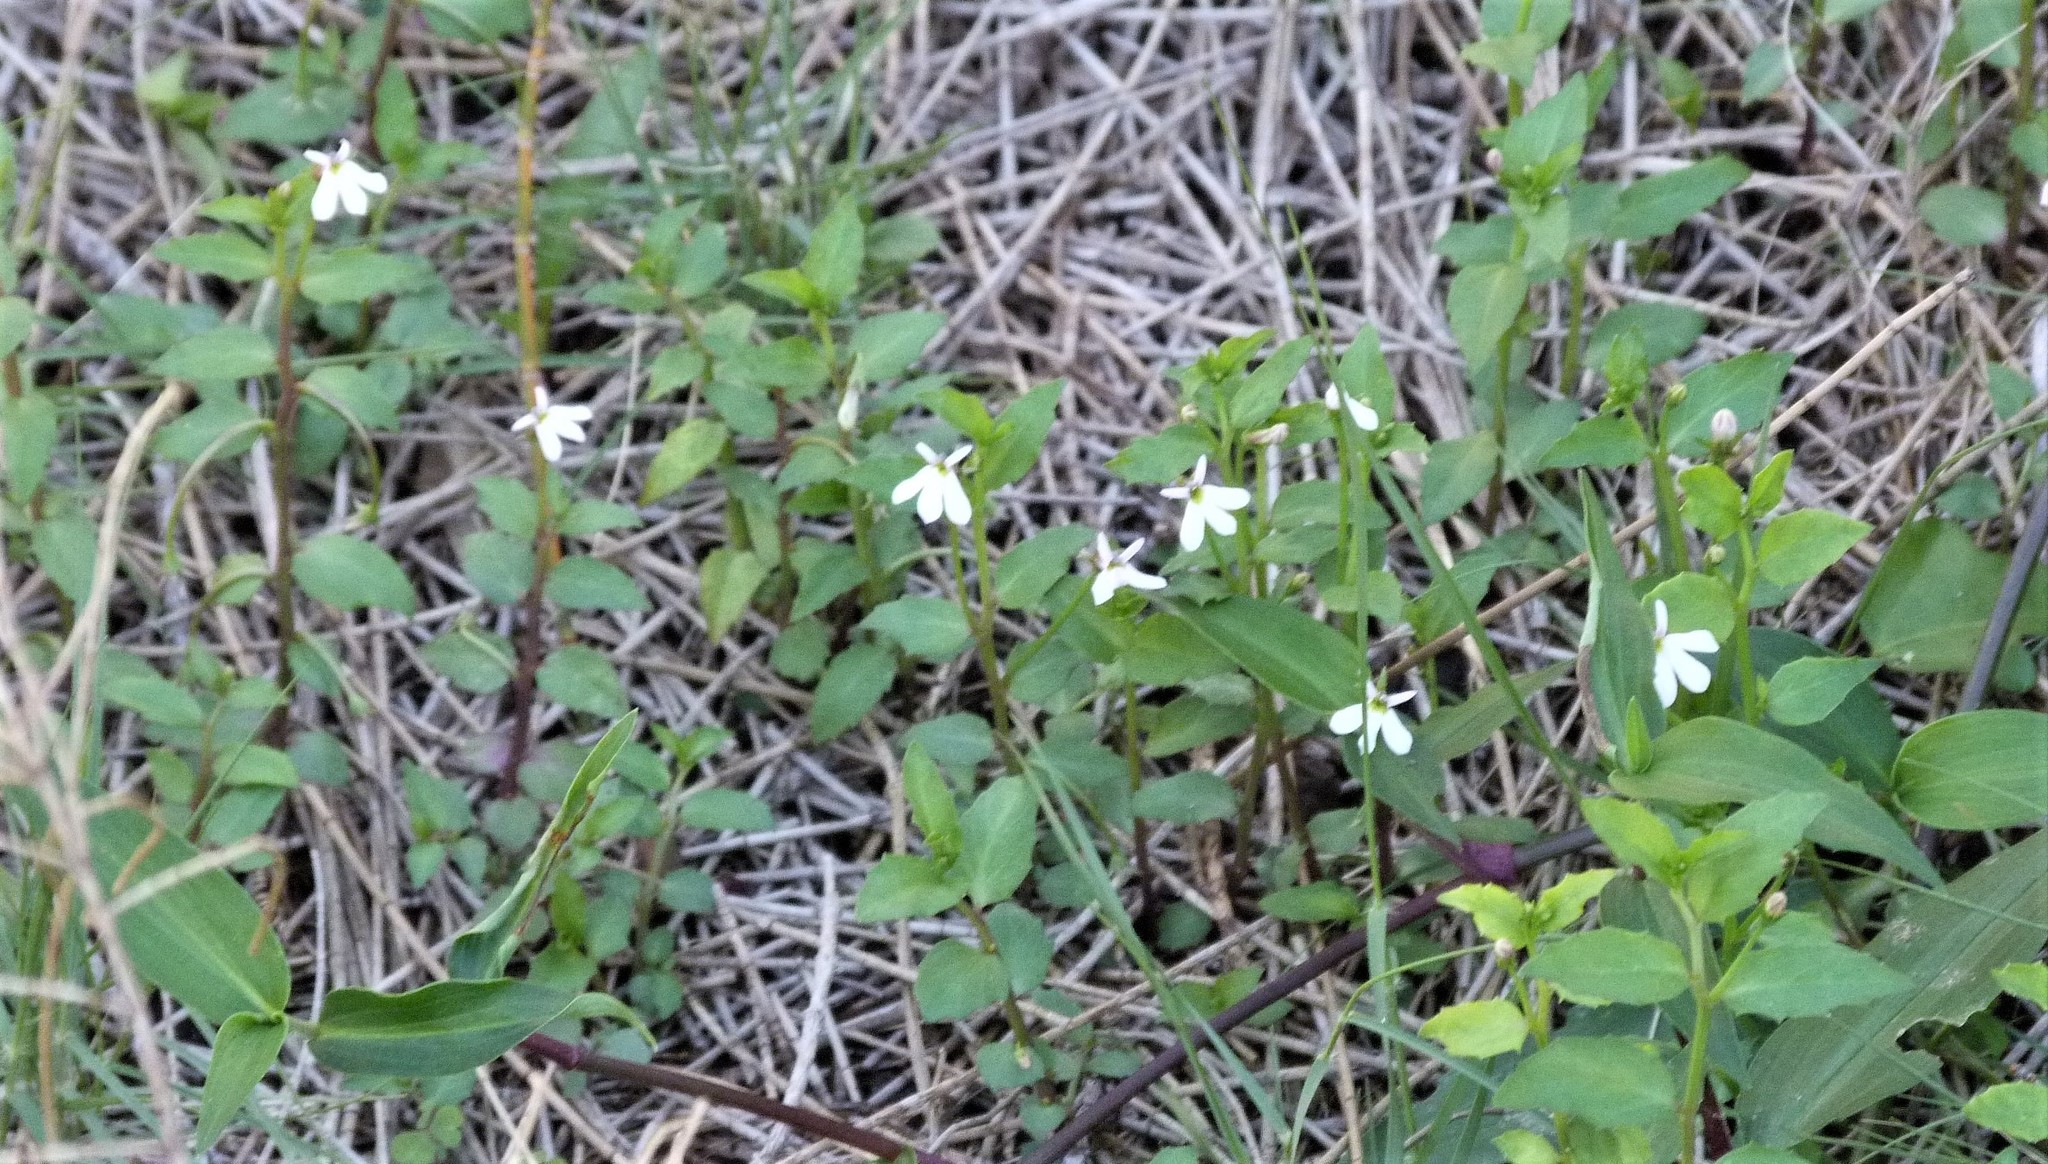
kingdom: Plantae
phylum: Tracheophyta
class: Magnoliopsida
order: Asterales
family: Campanulaceae
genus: Lobelia
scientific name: Lobelia purpurascens
